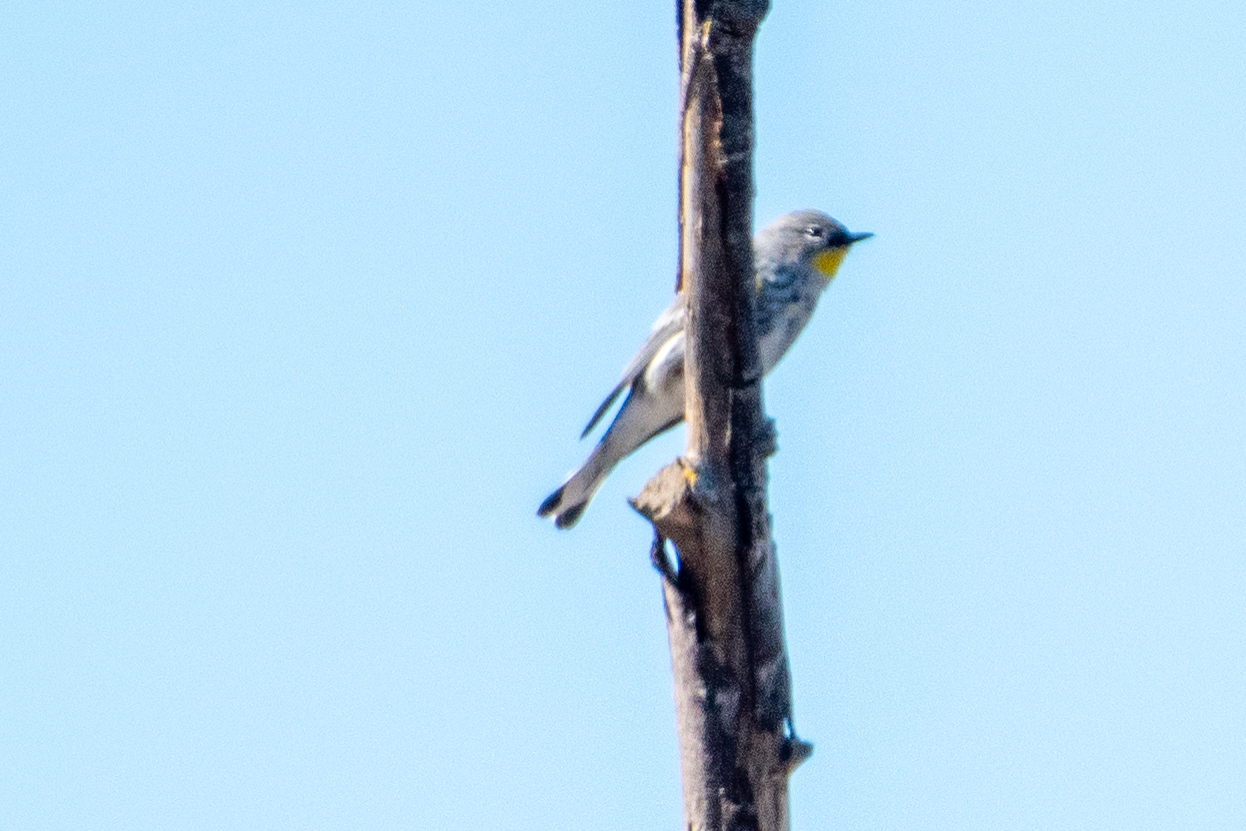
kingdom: Animalia
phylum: Chordata
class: Aves
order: Passeriformes
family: Parulidae
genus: Setophaga
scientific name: Setophaga coronata
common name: Myrtle warbler
